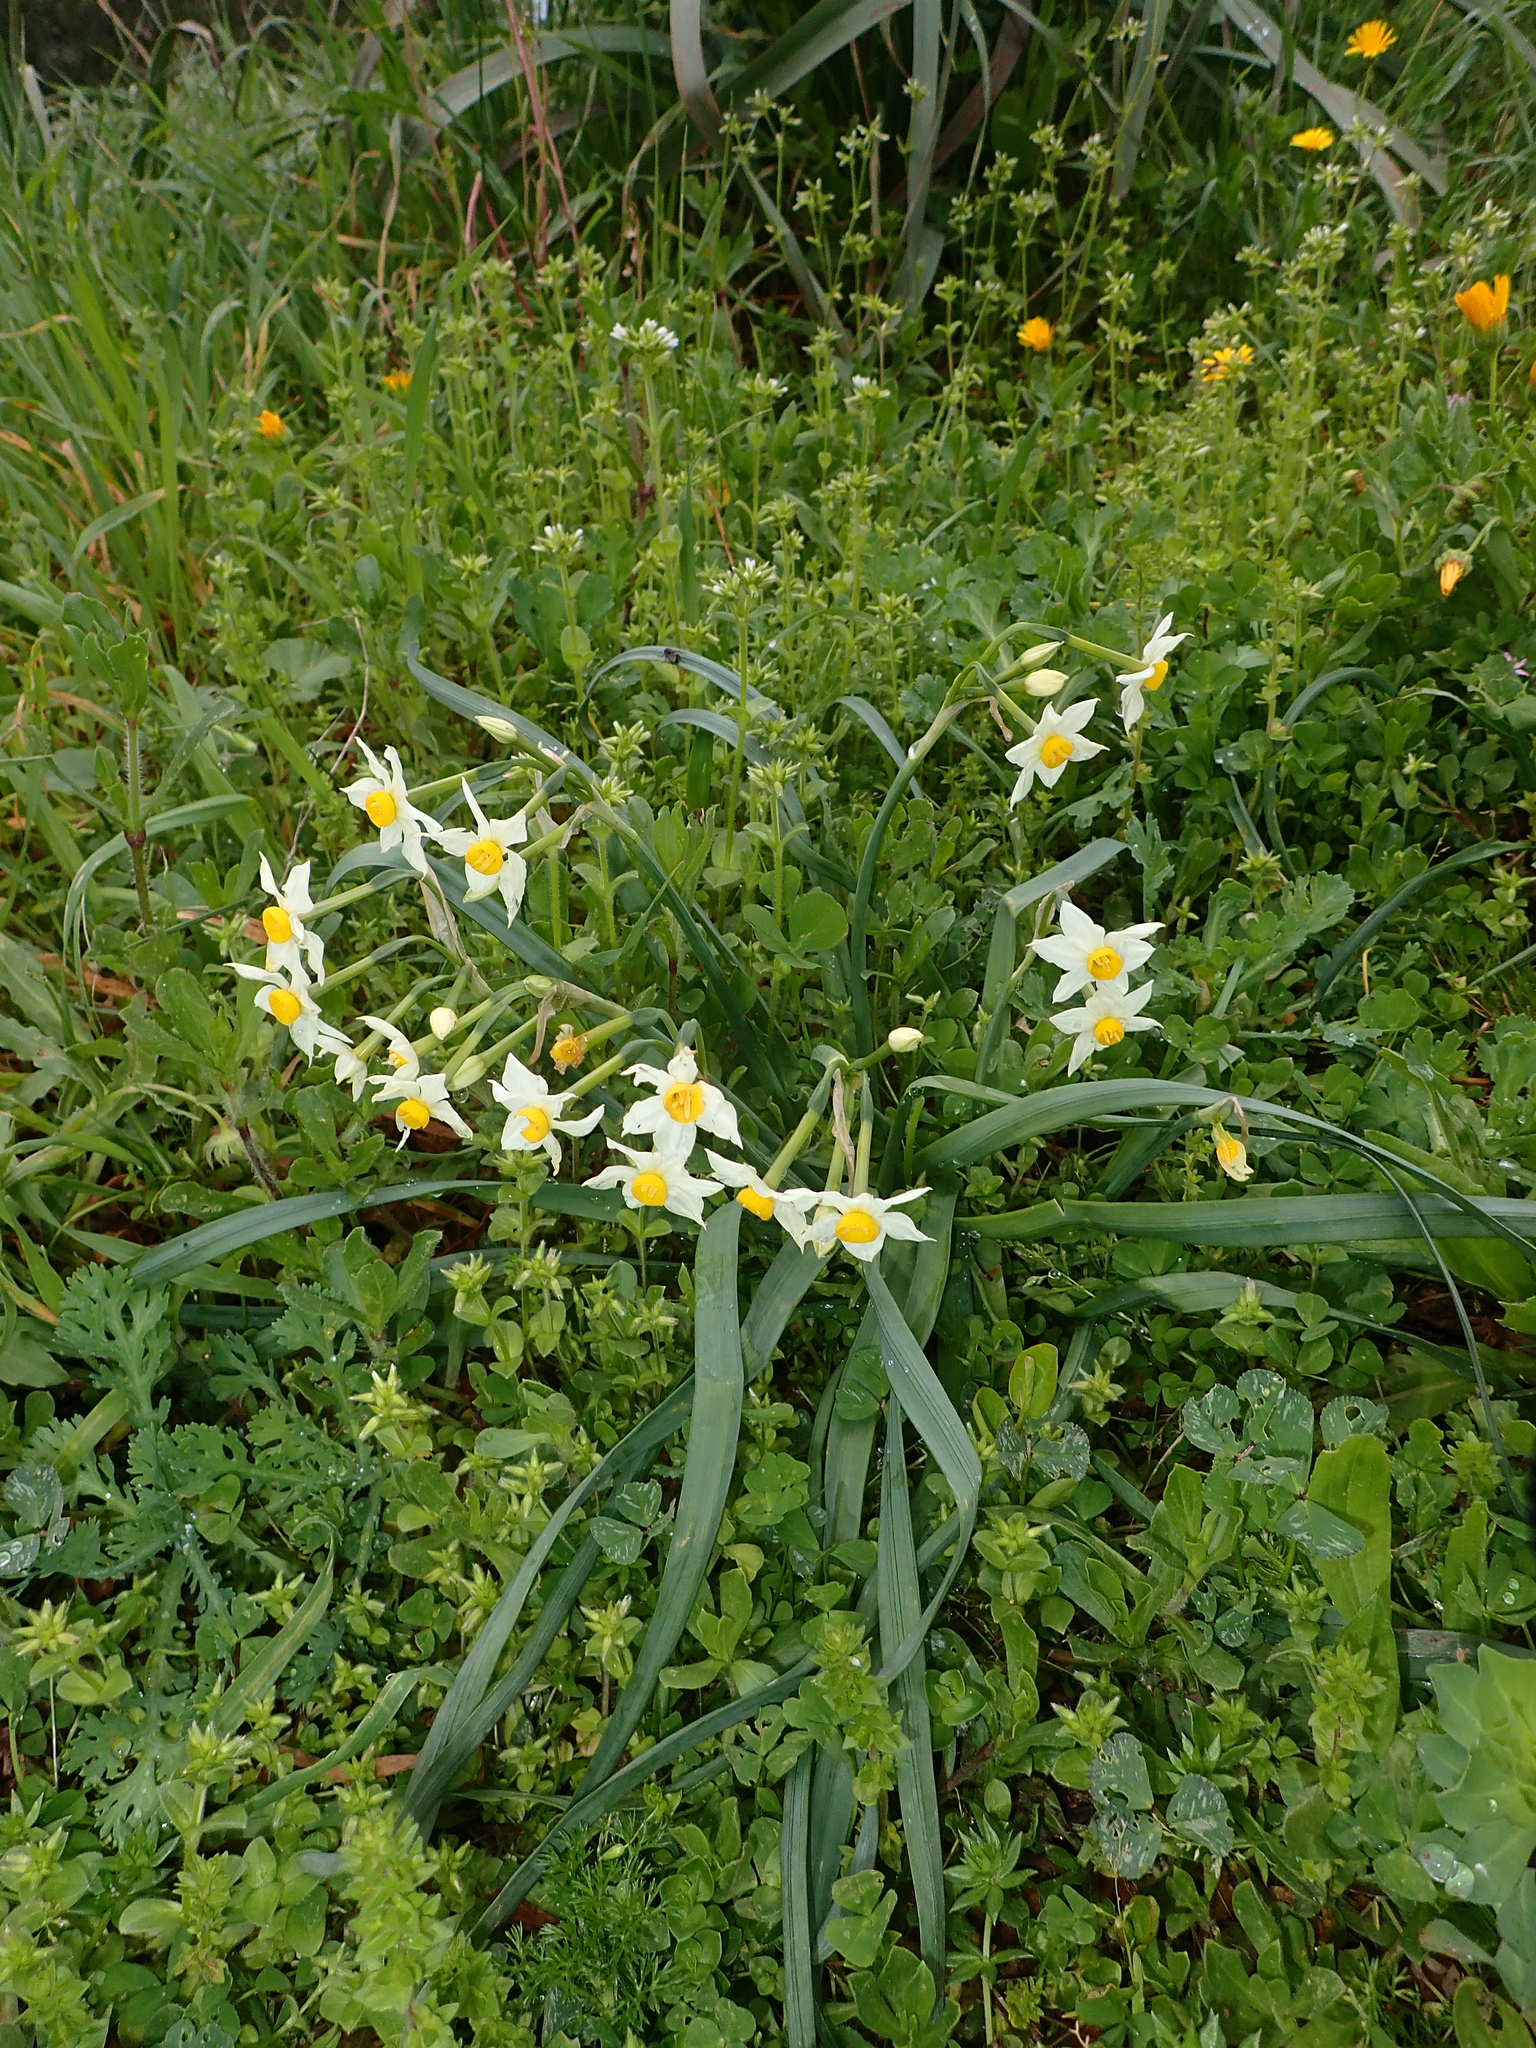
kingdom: Plantae
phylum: Tracheophyta
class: Liliopsida
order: Asparagales
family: Amaryllidaceae
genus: Narcissus
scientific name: Narcissus tazetta
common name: Bunch-flowered daffodil
